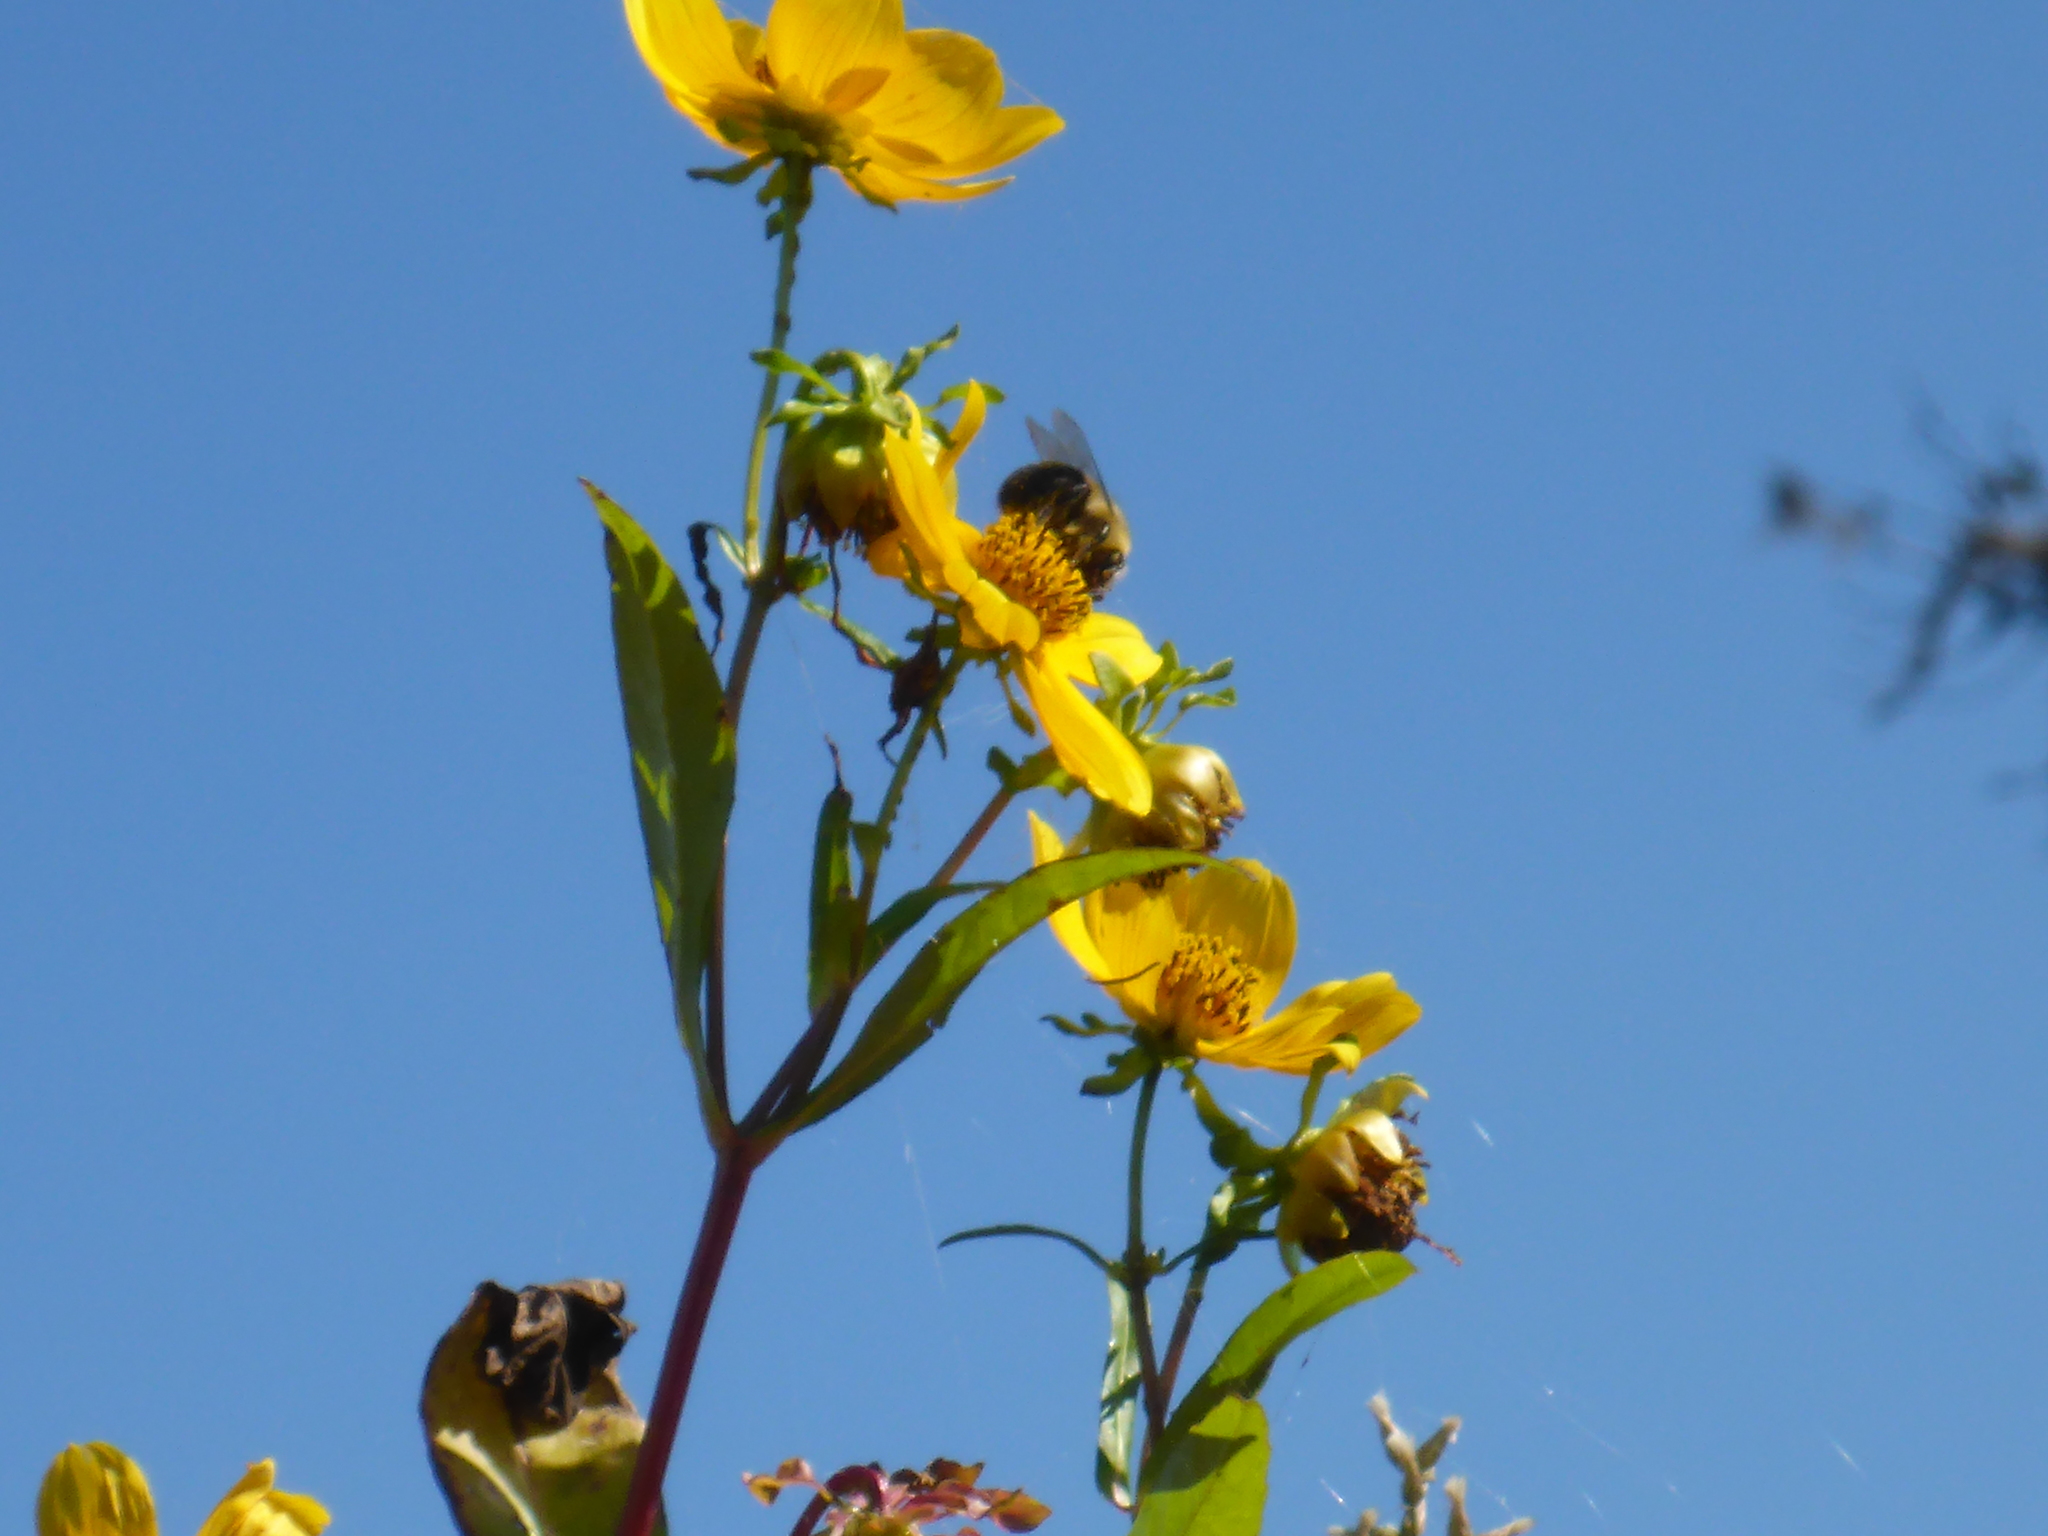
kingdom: Animalia
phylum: Arthropoda
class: Insecta
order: Hymenoptera
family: Apidae
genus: Bombus
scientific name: Bombus impatiens
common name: Common eastern bumble bee
